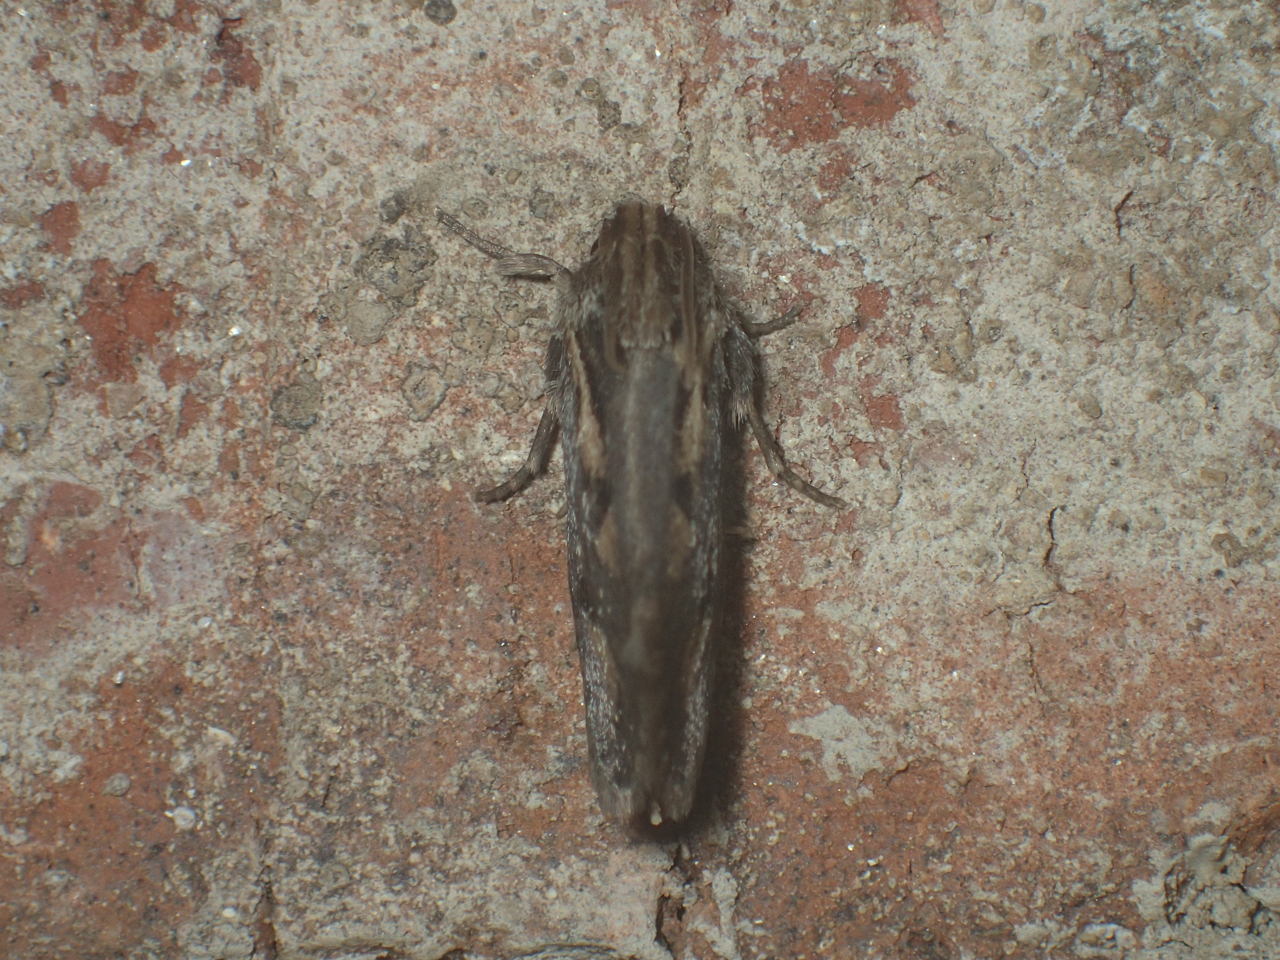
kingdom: Animalia
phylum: Arthropoda
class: Insecta
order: Lepidoptera
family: Tineidae
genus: Acrolophus
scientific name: Acrolophus popeanella
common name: Clemens' grass tubeworm moth
